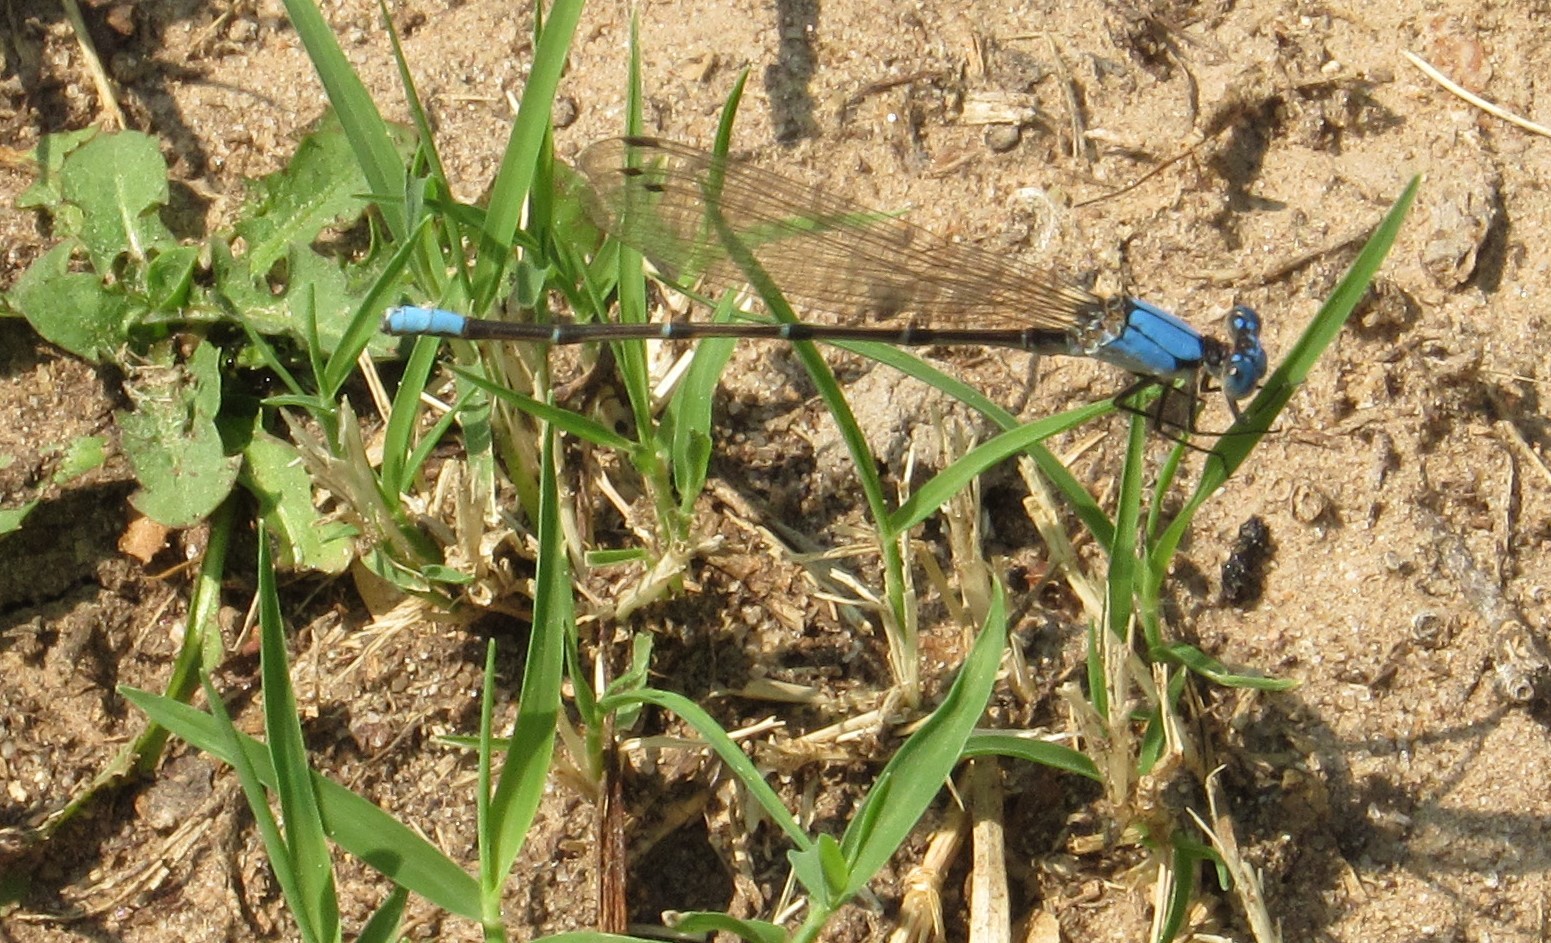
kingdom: Animalia
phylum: Arthropoda
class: Insecta
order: Odonata
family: Coenagrionidae
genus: Argia
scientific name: Argia apicalis
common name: Blue-fronted dancer
